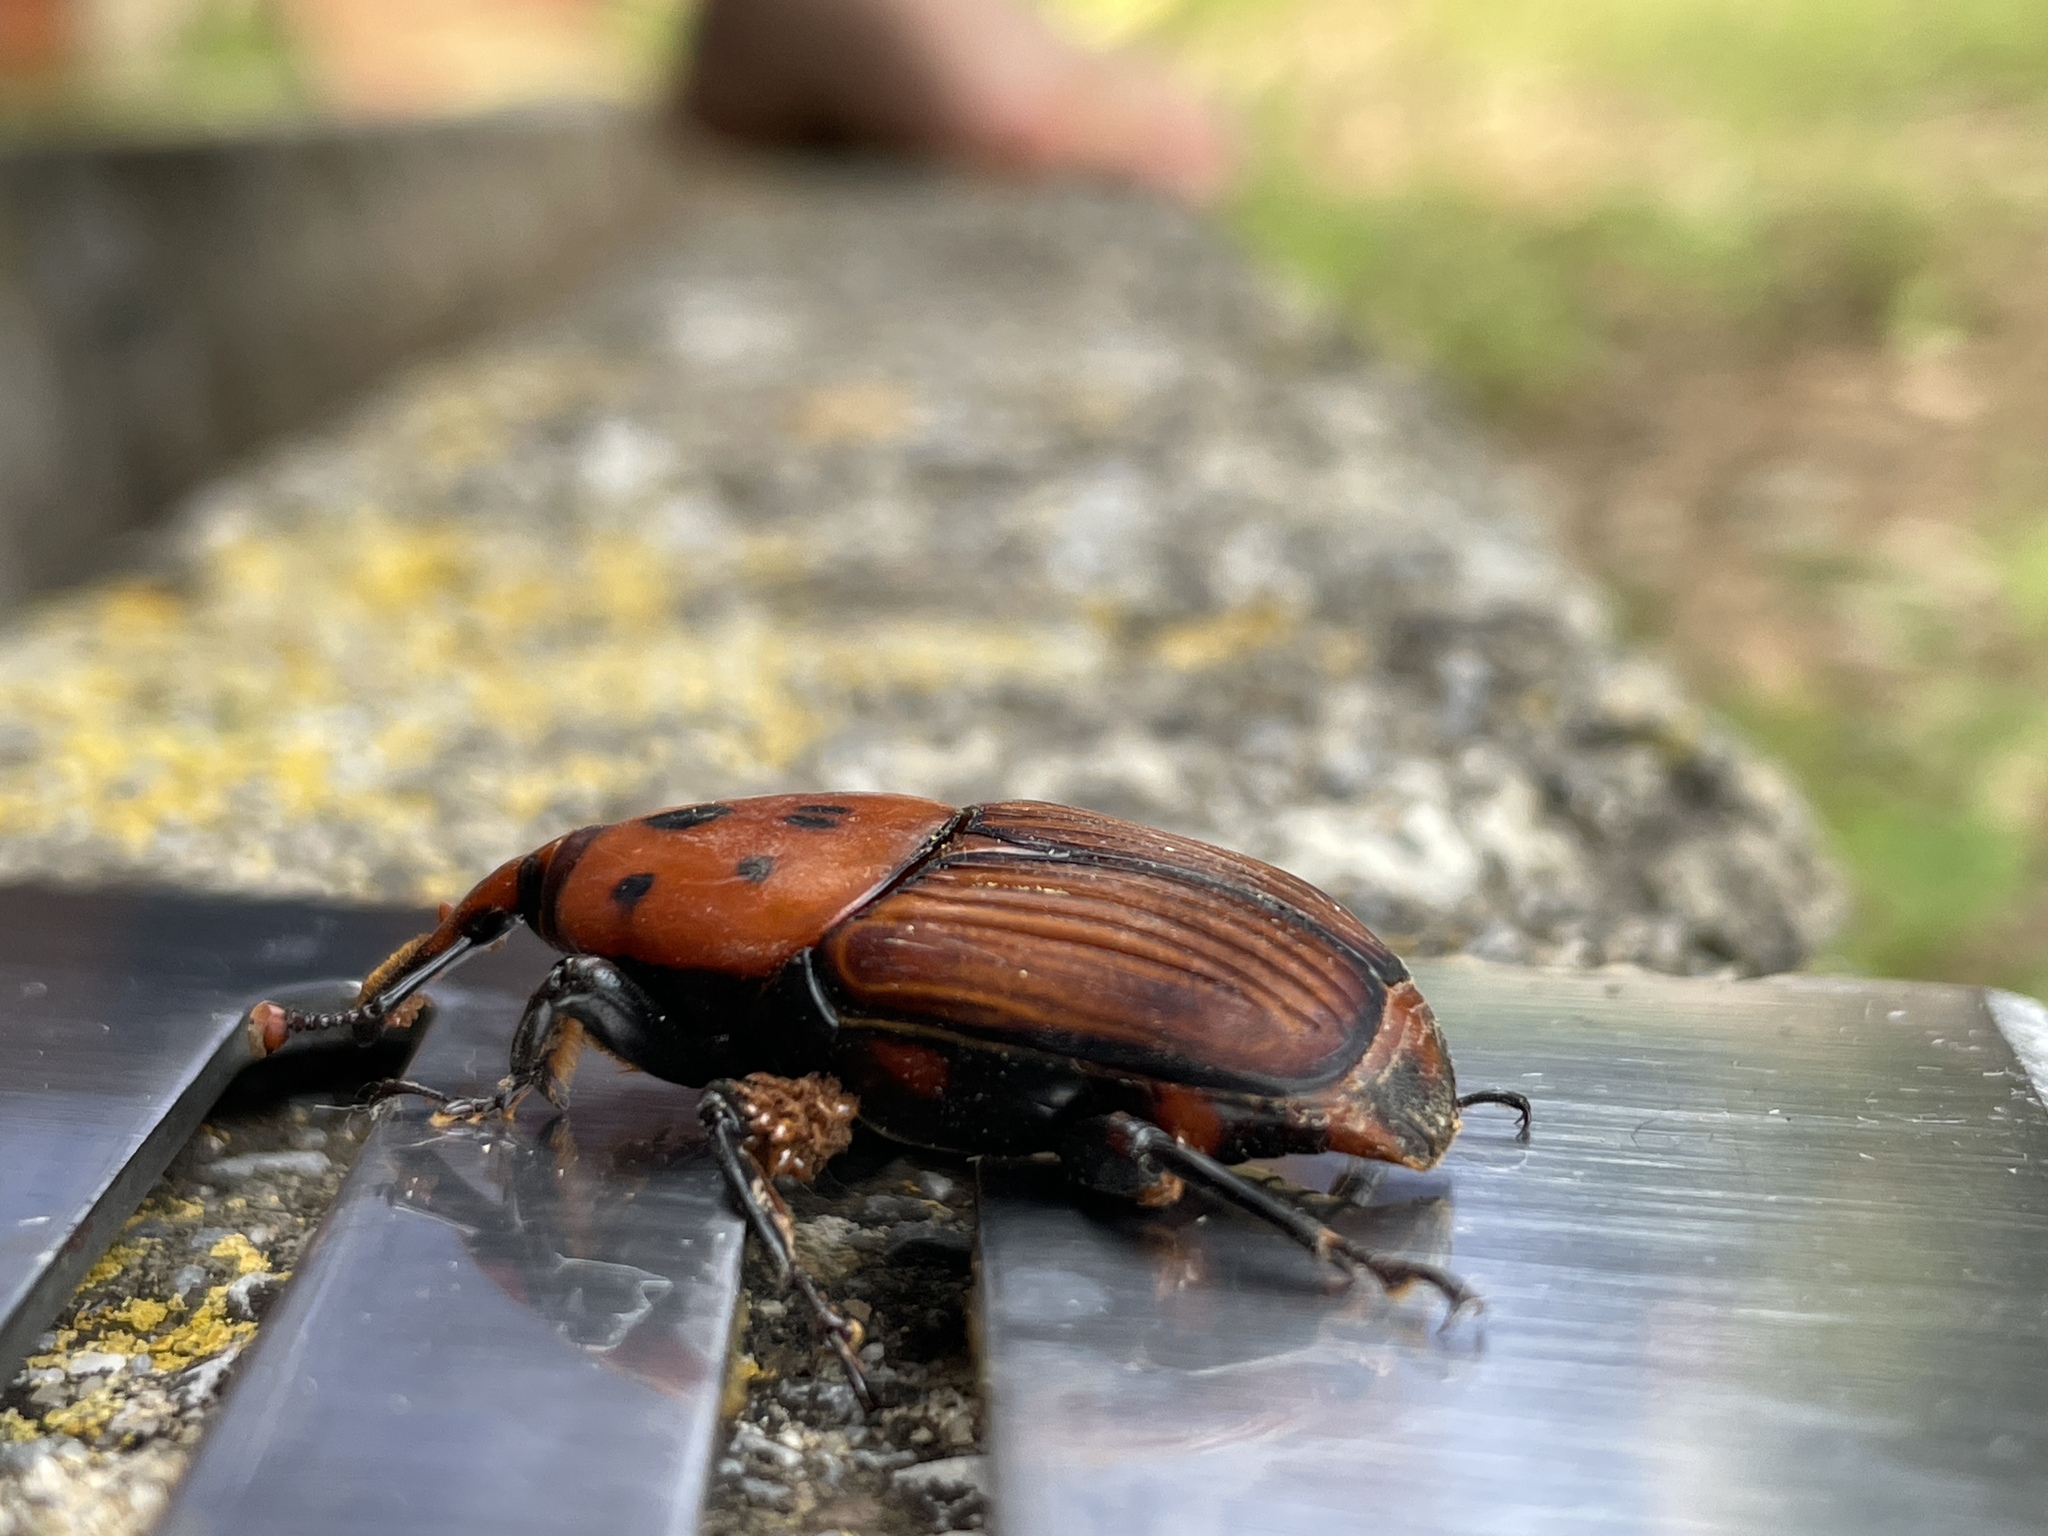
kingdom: Animalia
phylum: Arthropoda
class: Insecta
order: Coleoptera
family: Dryophthoridae
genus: Rhynchophorus
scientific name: Rhynchophorus ferrugineus
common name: Red palm weevil
